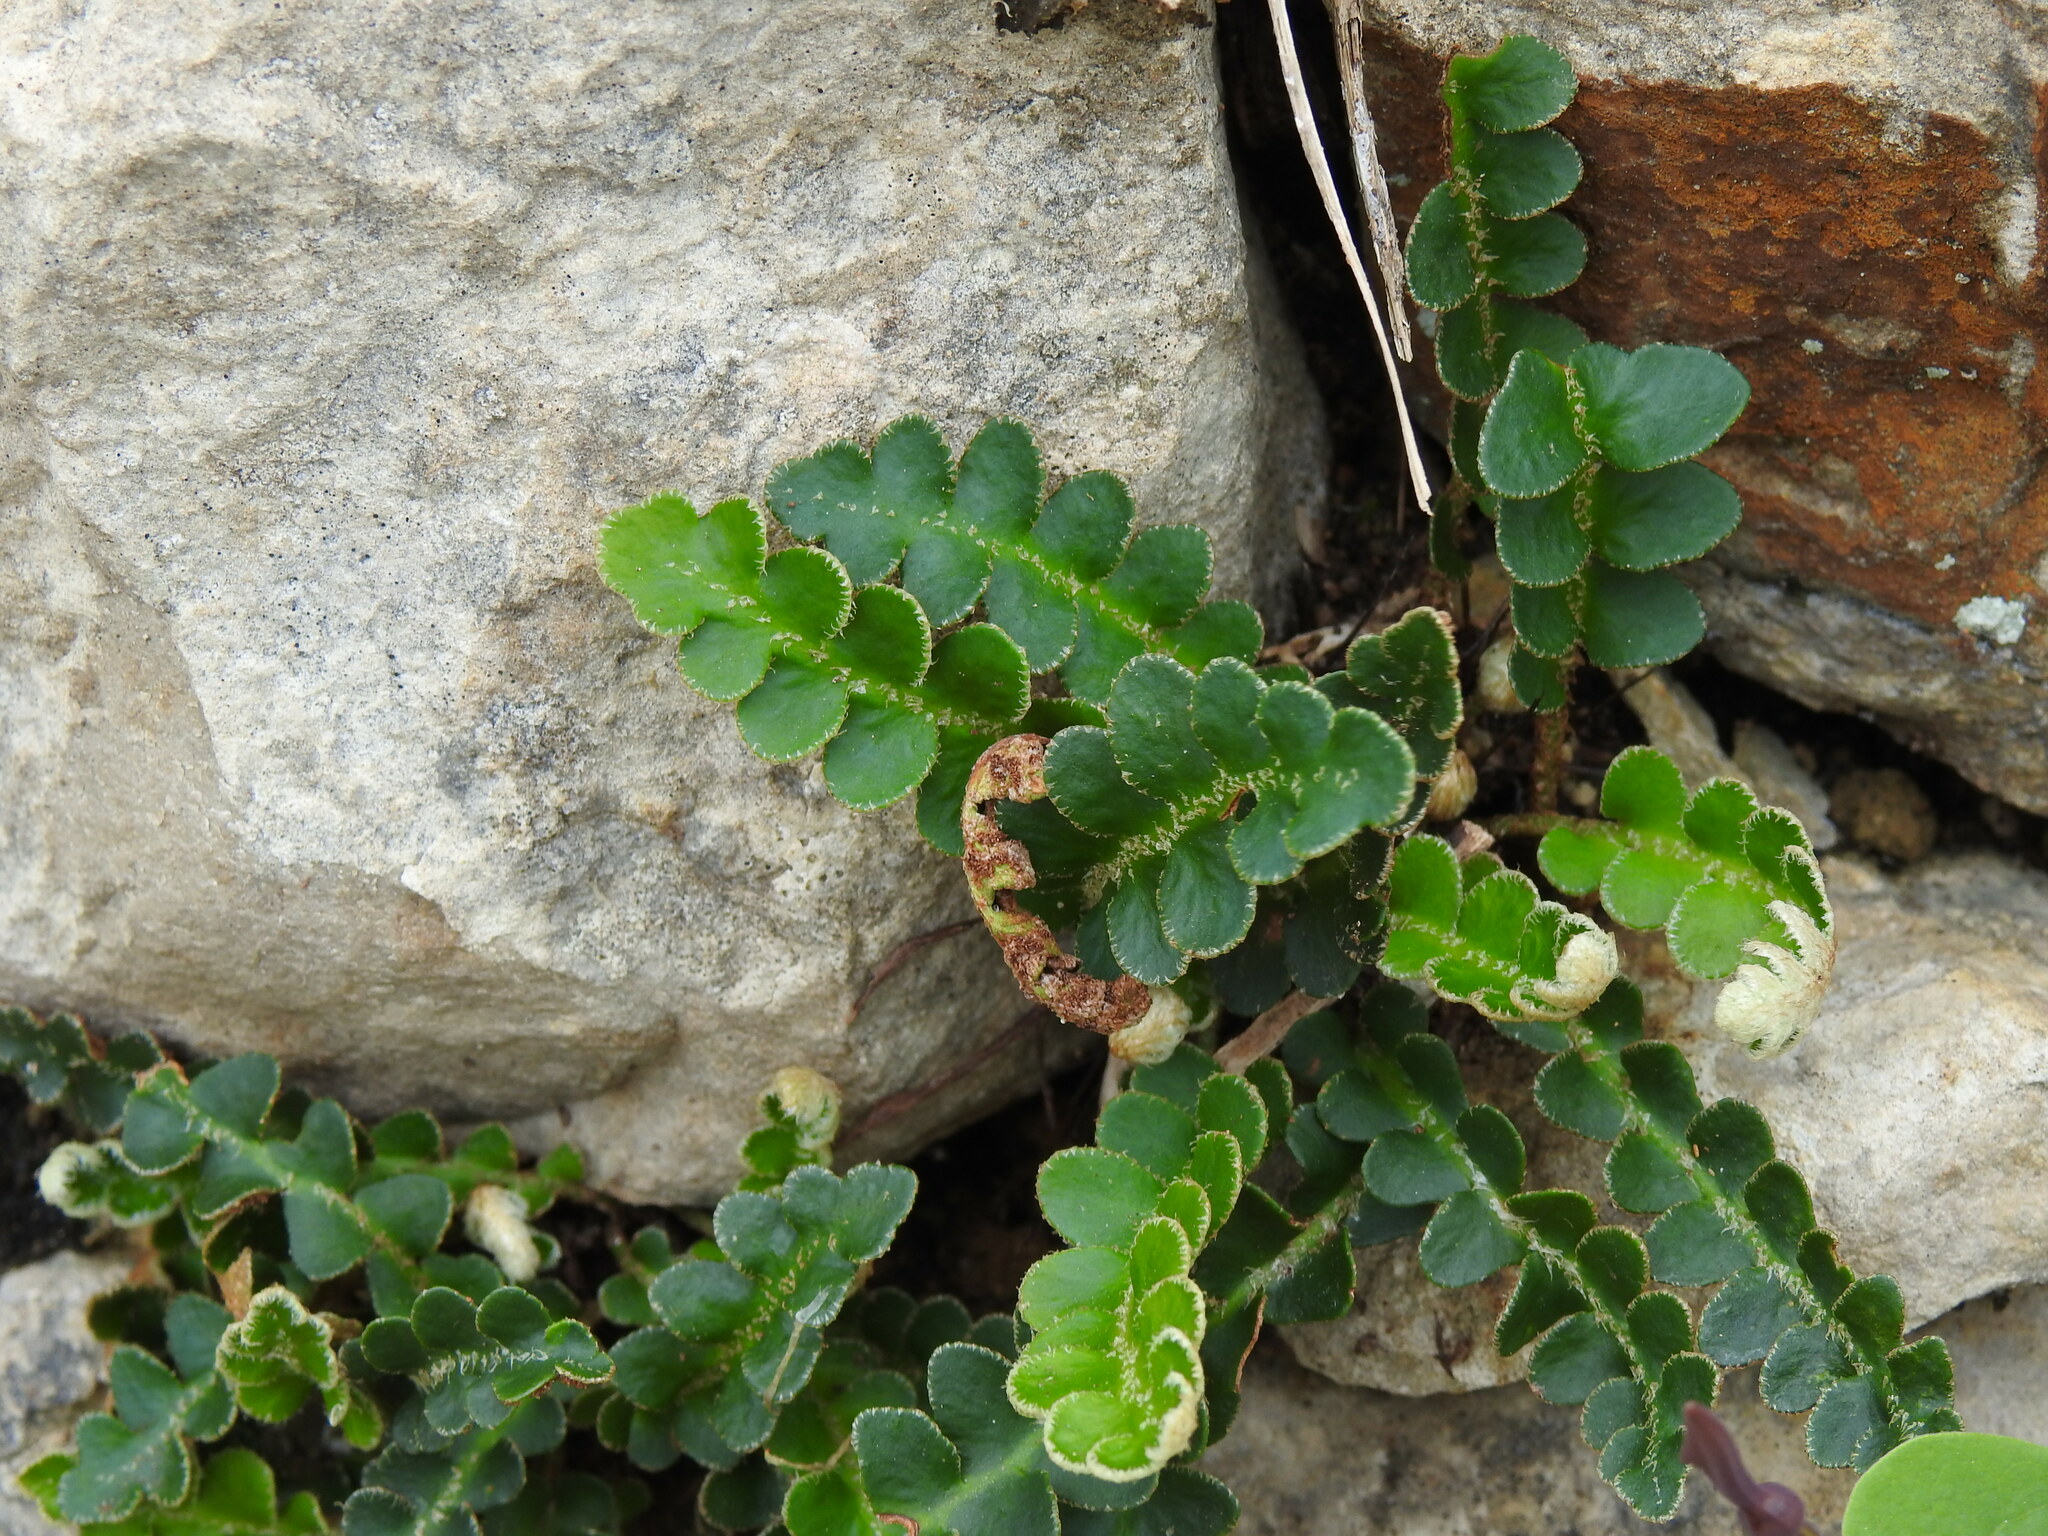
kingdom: Plantae
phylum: Tracheophyta
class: Polypodiopsida
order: Polypodiales
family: Aspleniaceae
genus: Asplenium
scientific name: Asplenium ceterach
